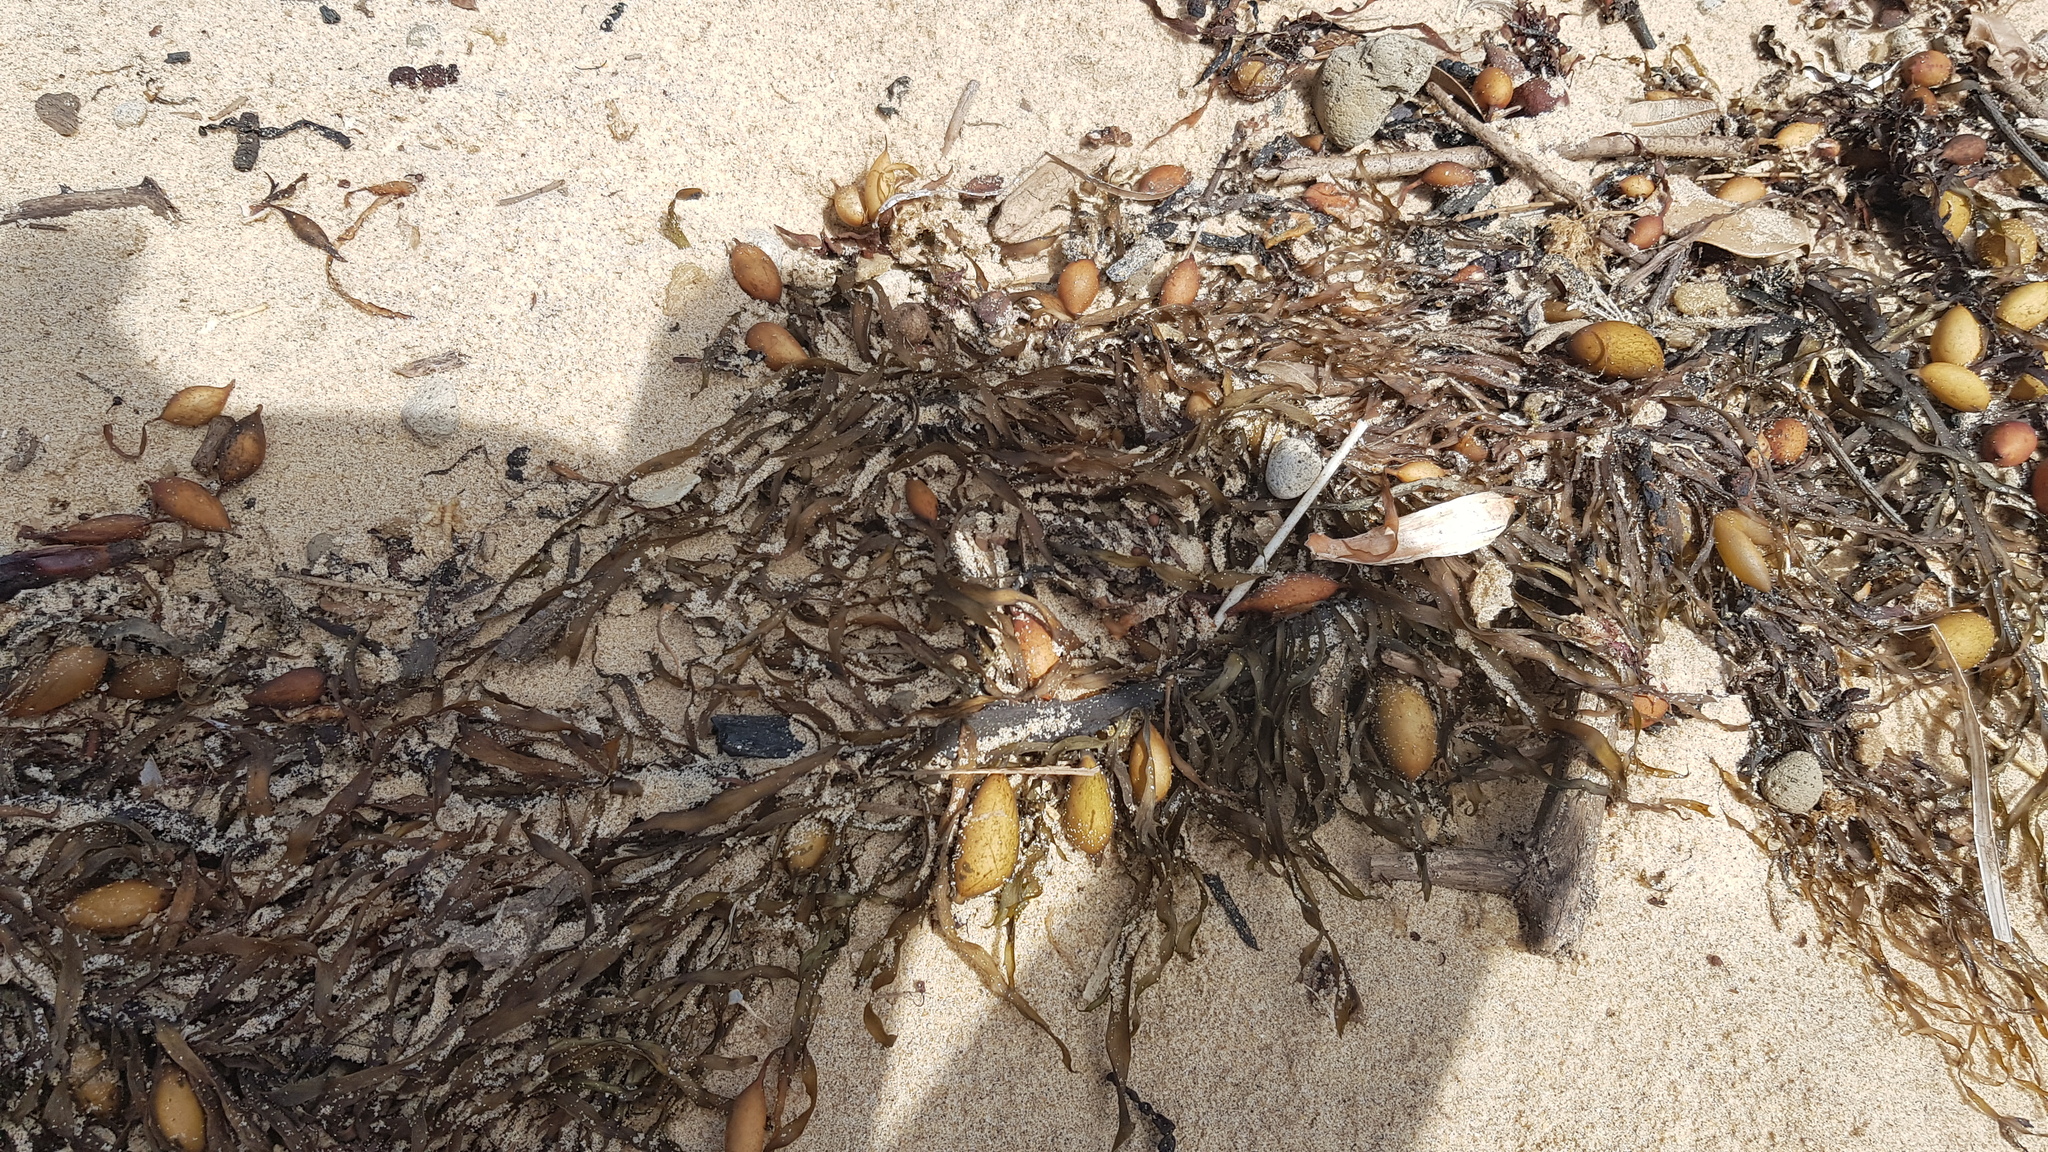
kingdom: Chromista
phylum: Ochrophyta
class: Phaeophyceae
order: Fucales
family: Seirococcaceae
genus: Phyllospora
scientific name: Phyllospora
